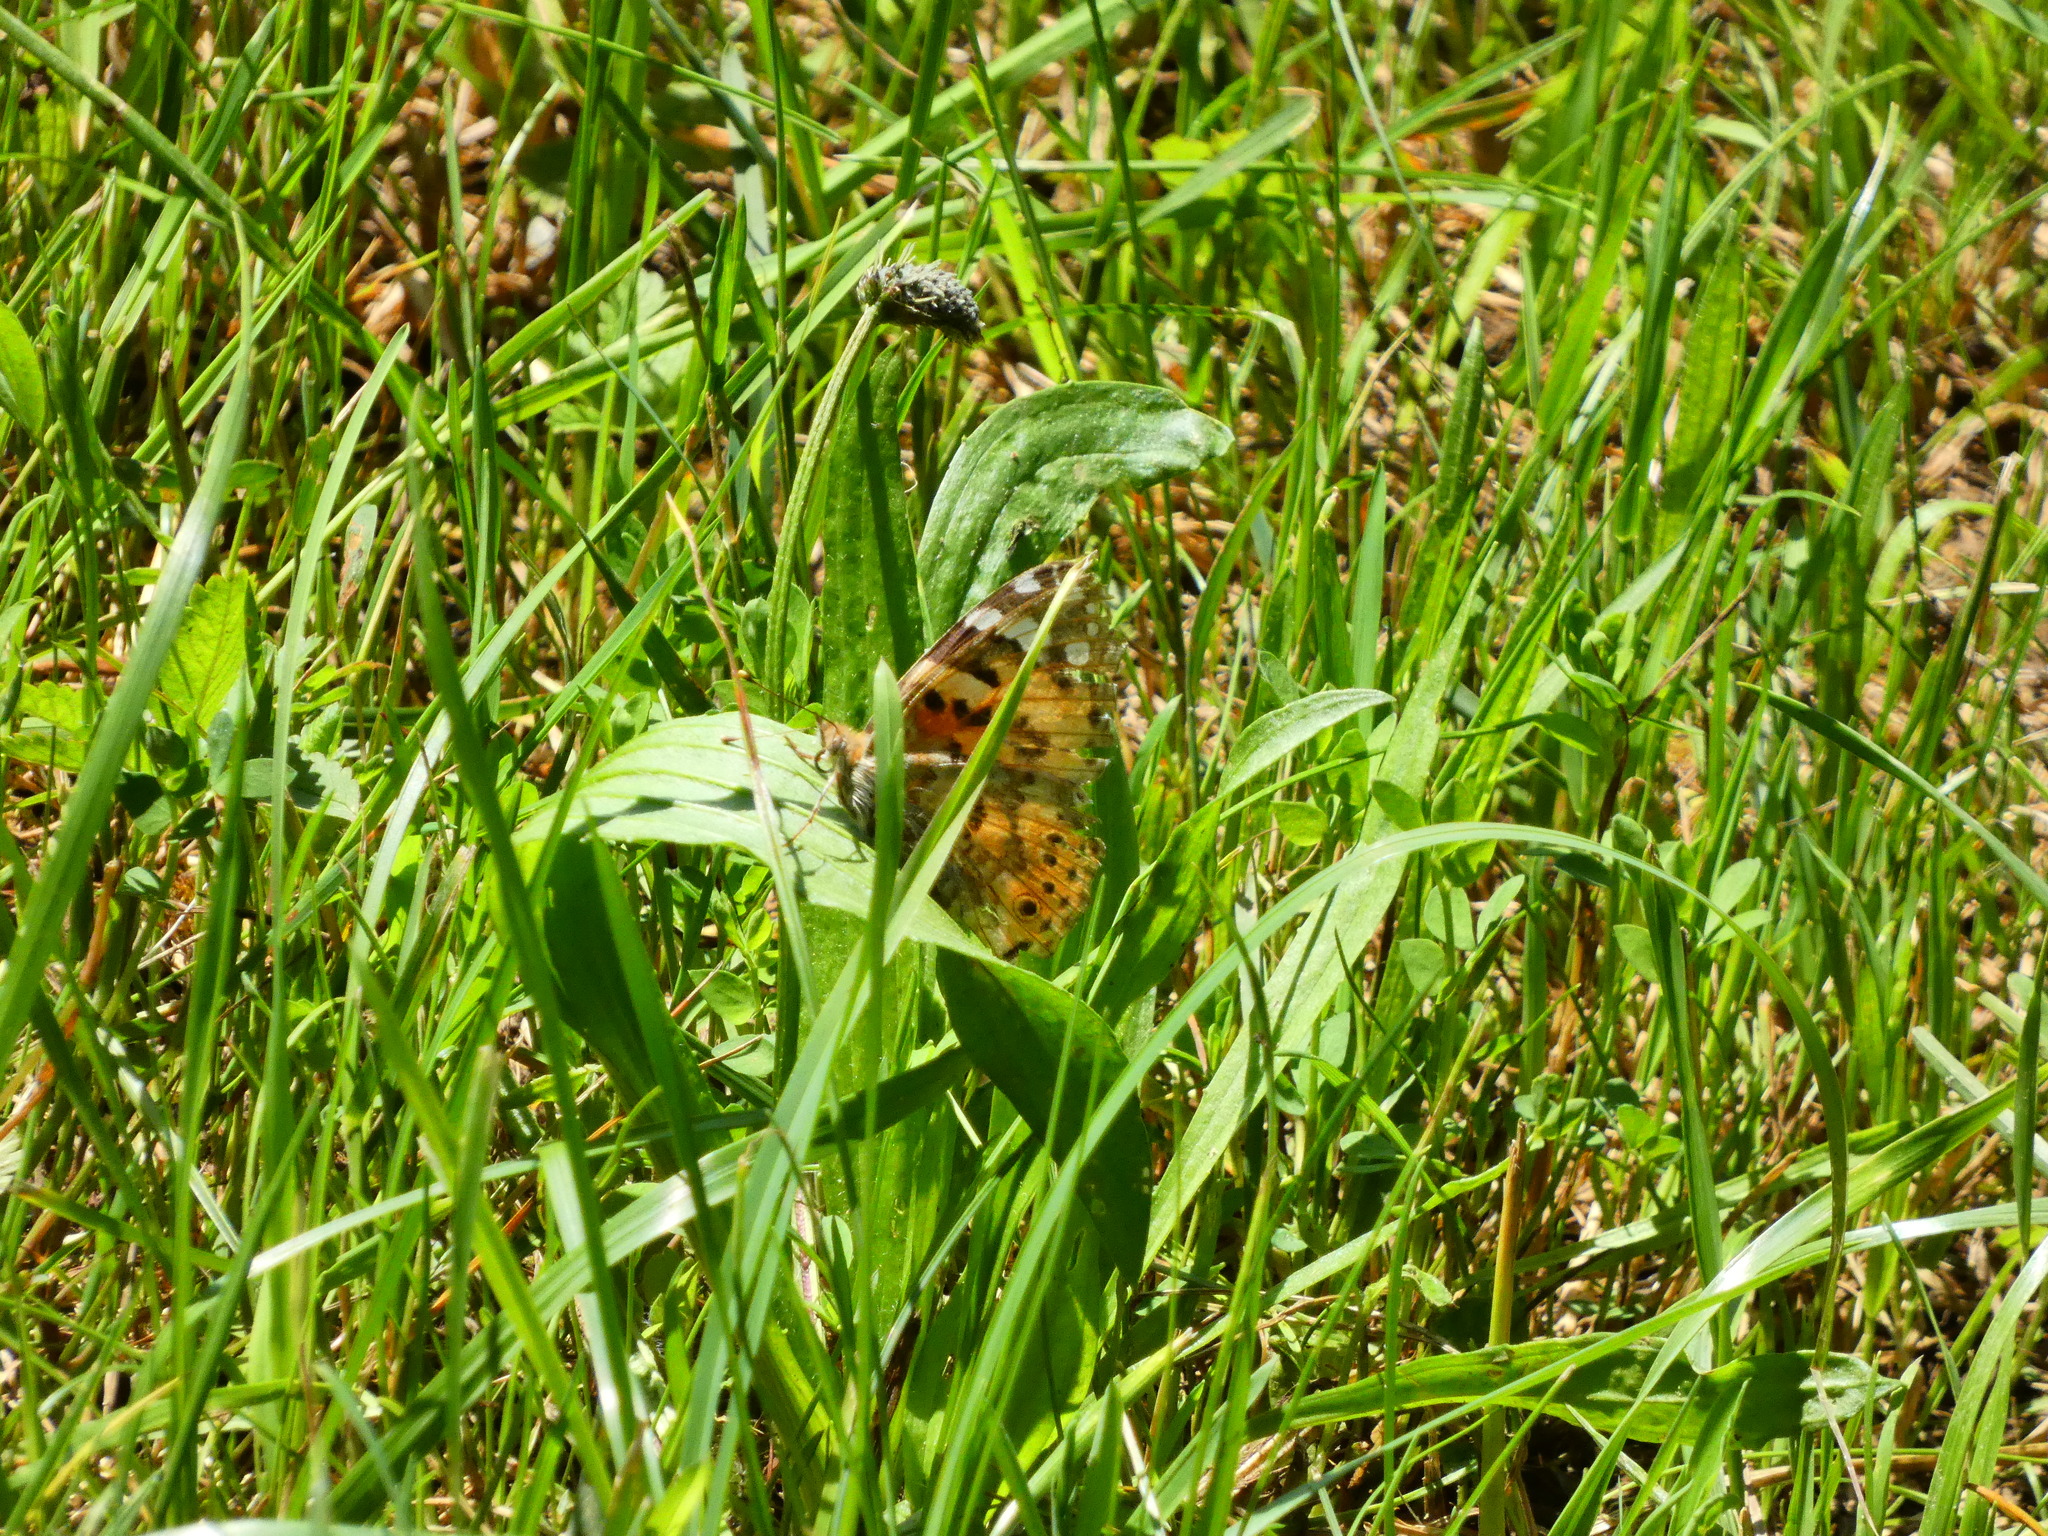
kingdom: Animalia
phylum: Arthropoda
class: Insecta
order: Lepidoptera
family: Nymphalidae
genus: Vanessa
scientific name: Vanessa cardui
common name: Painted lady
